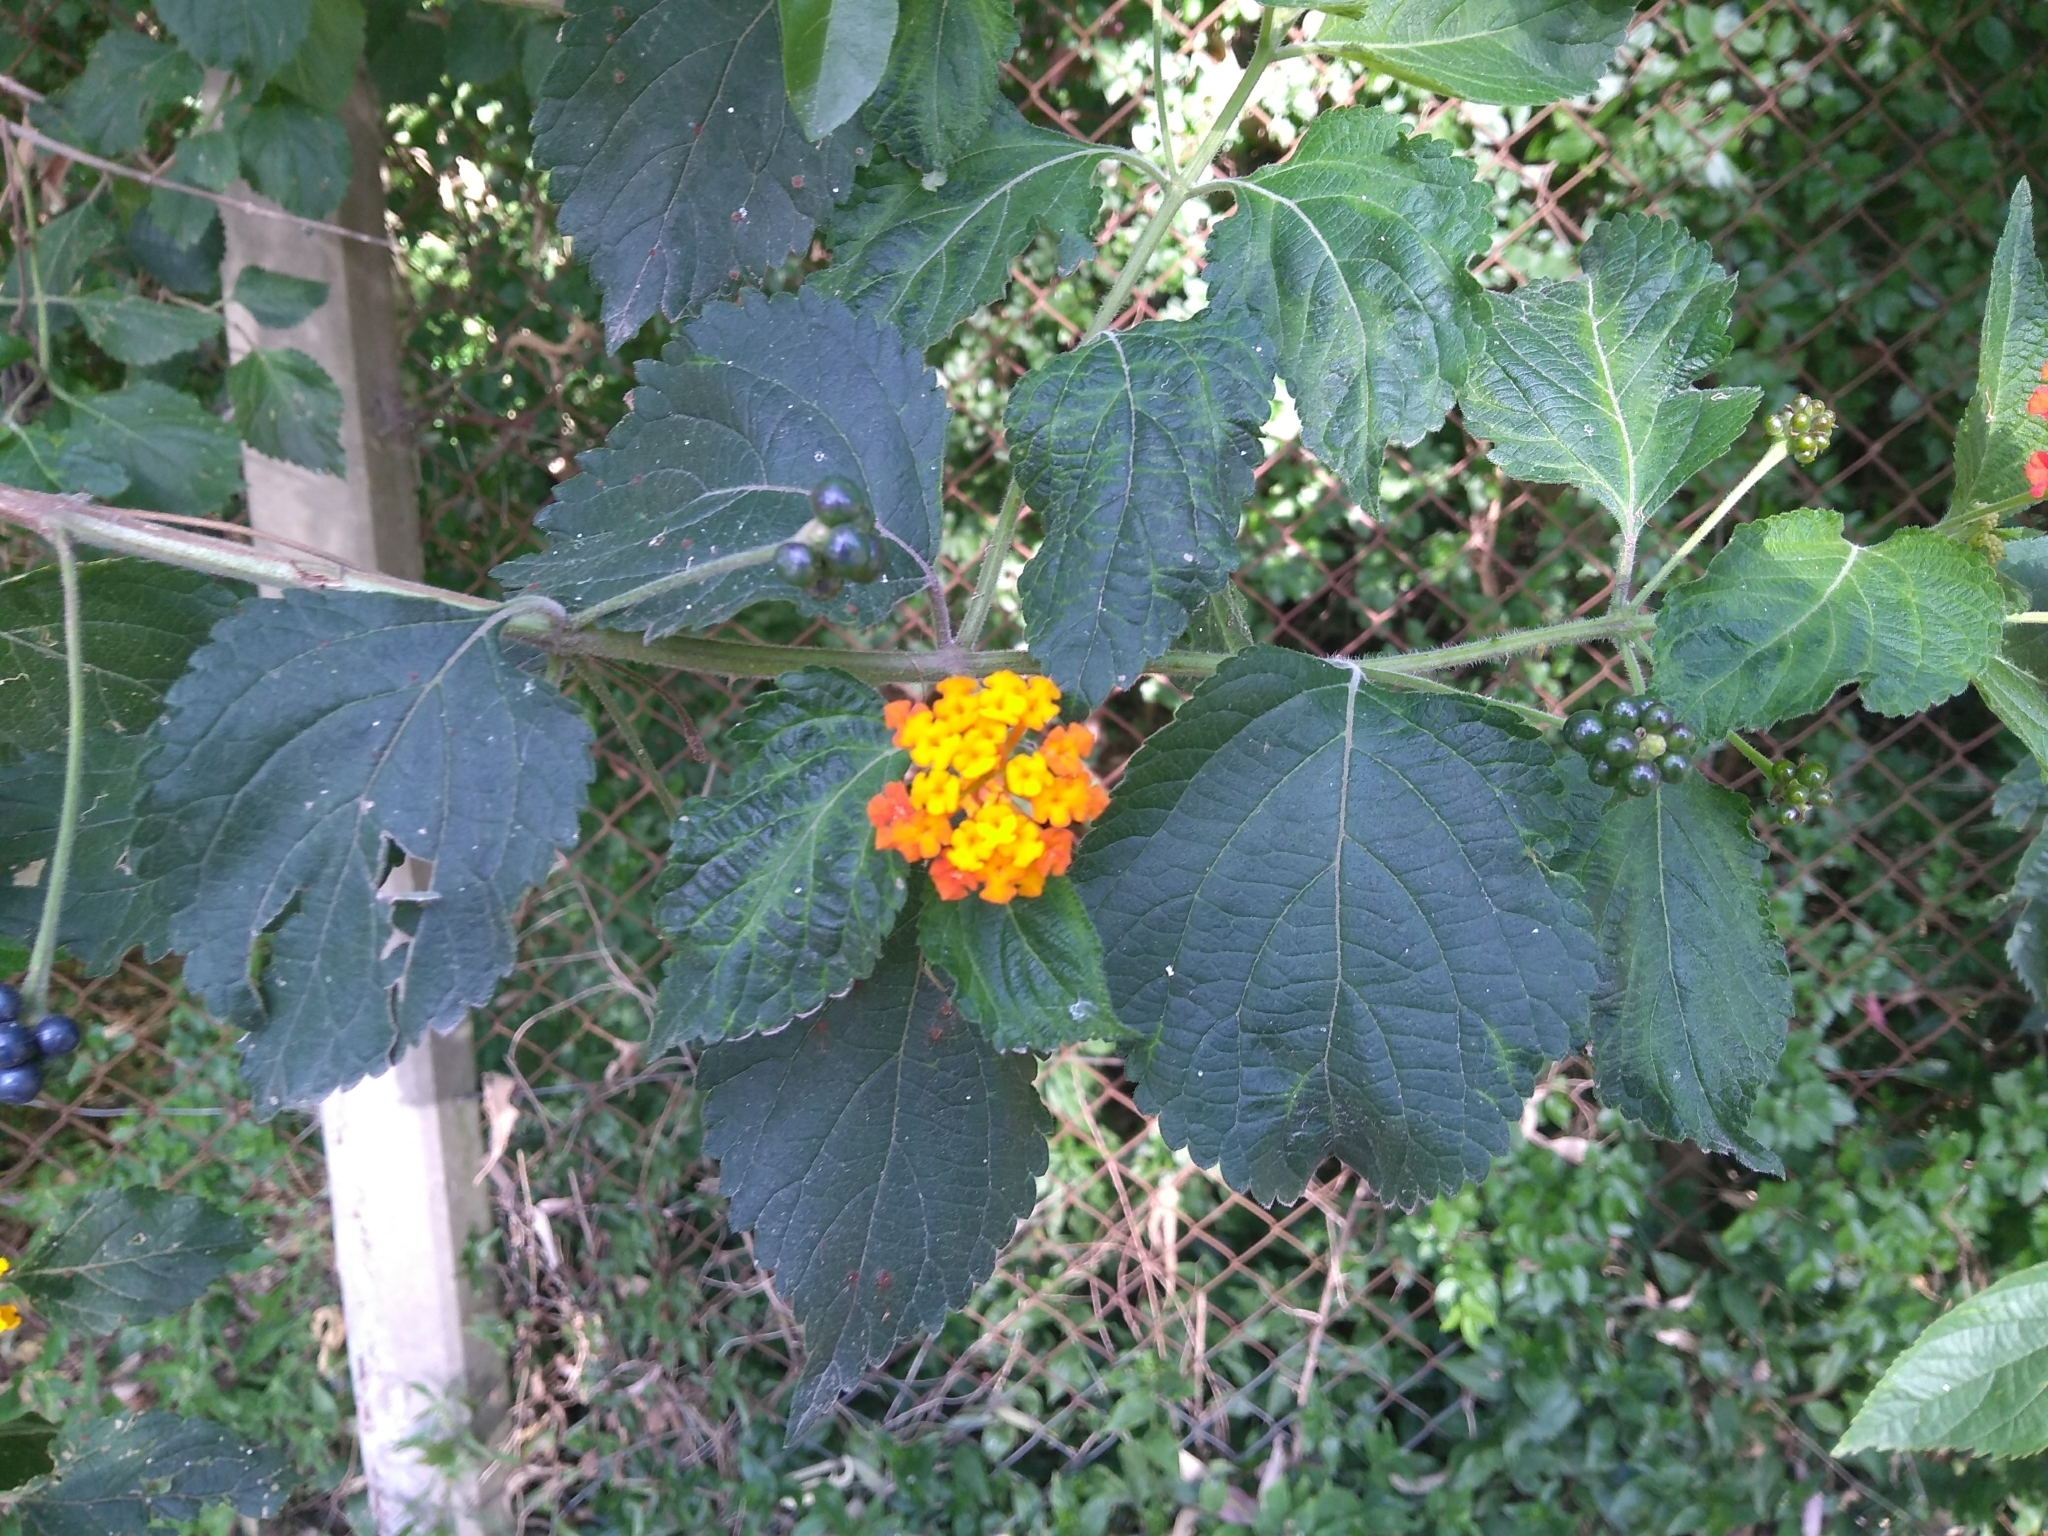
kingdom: Plantae
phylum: Tracheophyta
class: Magnoliopsida
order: Lamiales
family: Verbenaceae
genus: Lantana
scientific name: Lantana camara
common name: Lantana
